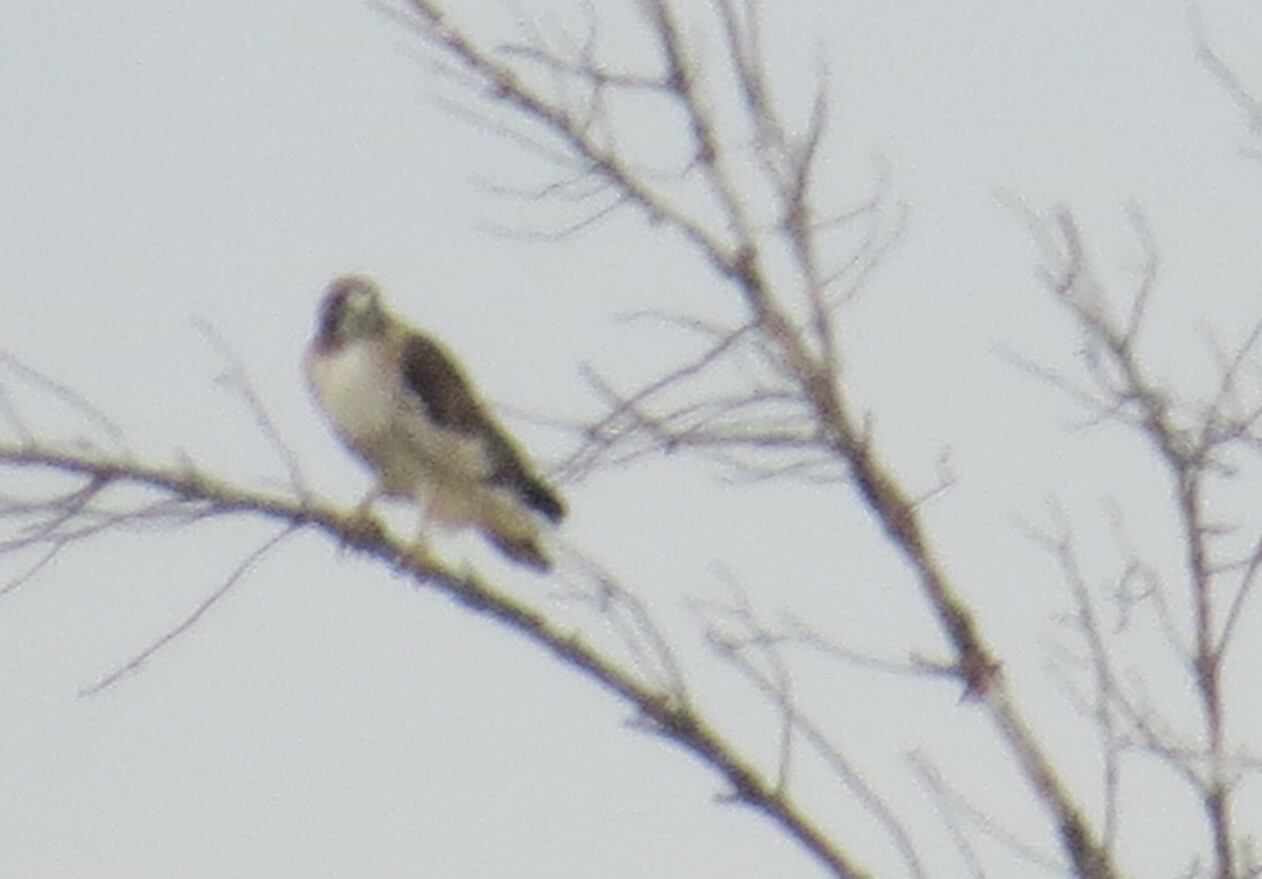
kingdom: Animalia
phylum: Chordata
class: Aves
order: Accipitriformes
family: Accipitridae
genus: Buteo
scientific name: Buteo jamaicensis
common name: Red-tailed hawk
